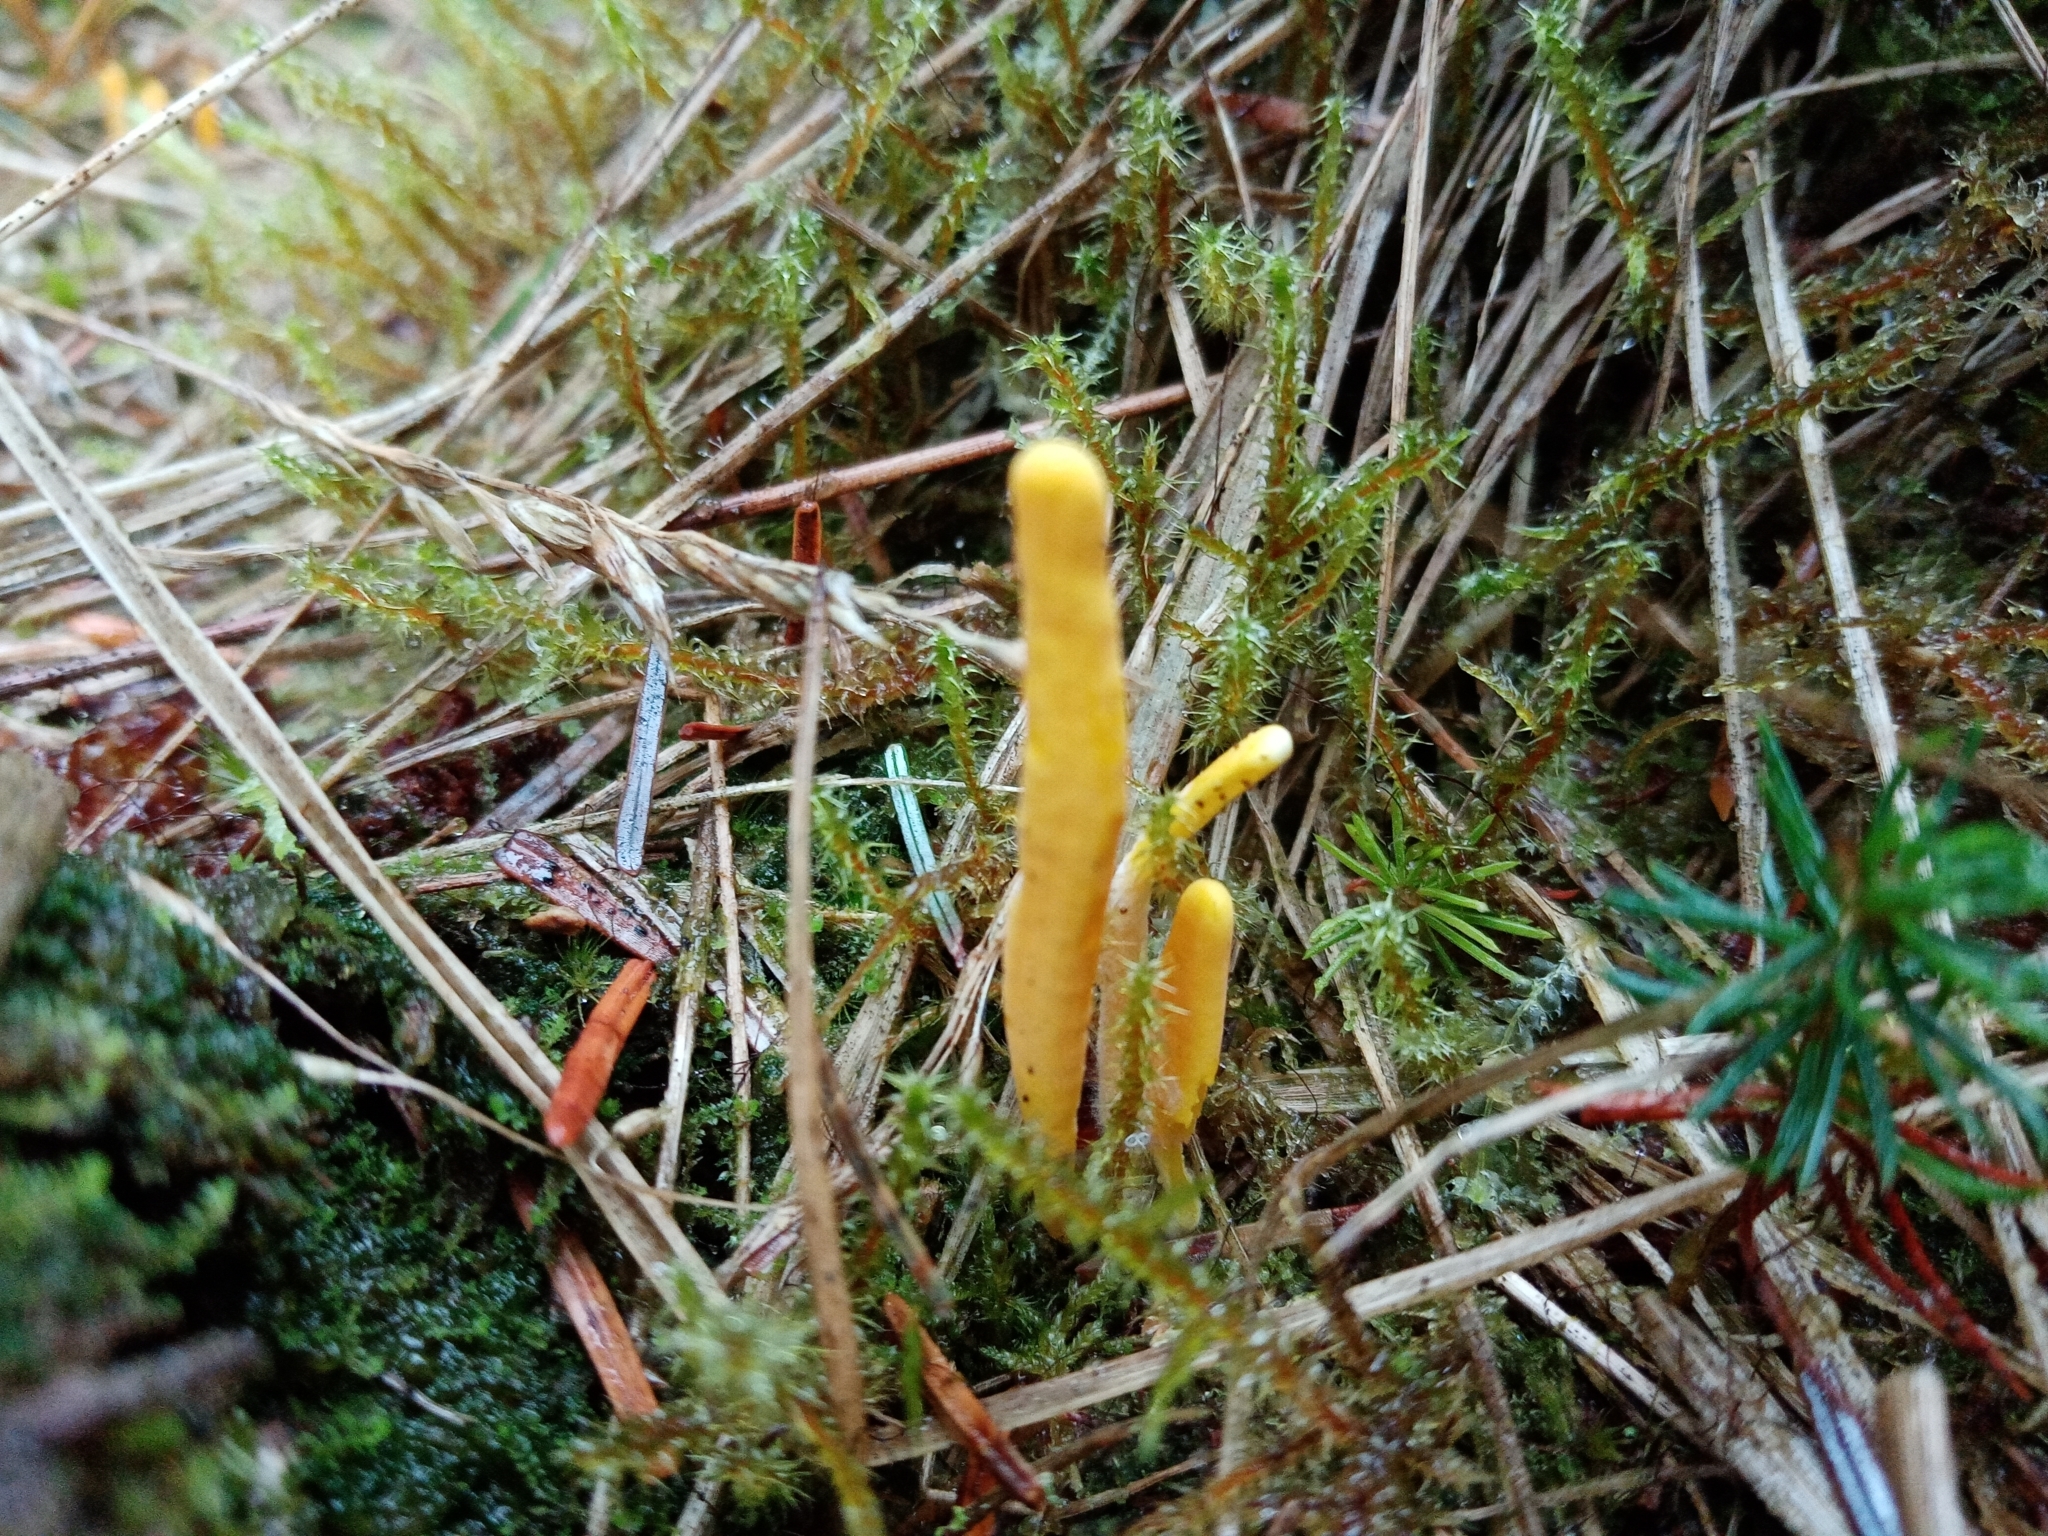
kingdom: Fungi
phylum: Basidiomycota
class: Agaricomycetes
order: Agaricales
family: Clavariaceae
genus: Clavulinopsis
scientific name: Clavulinopsis fusiformis
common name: Golden spindles
